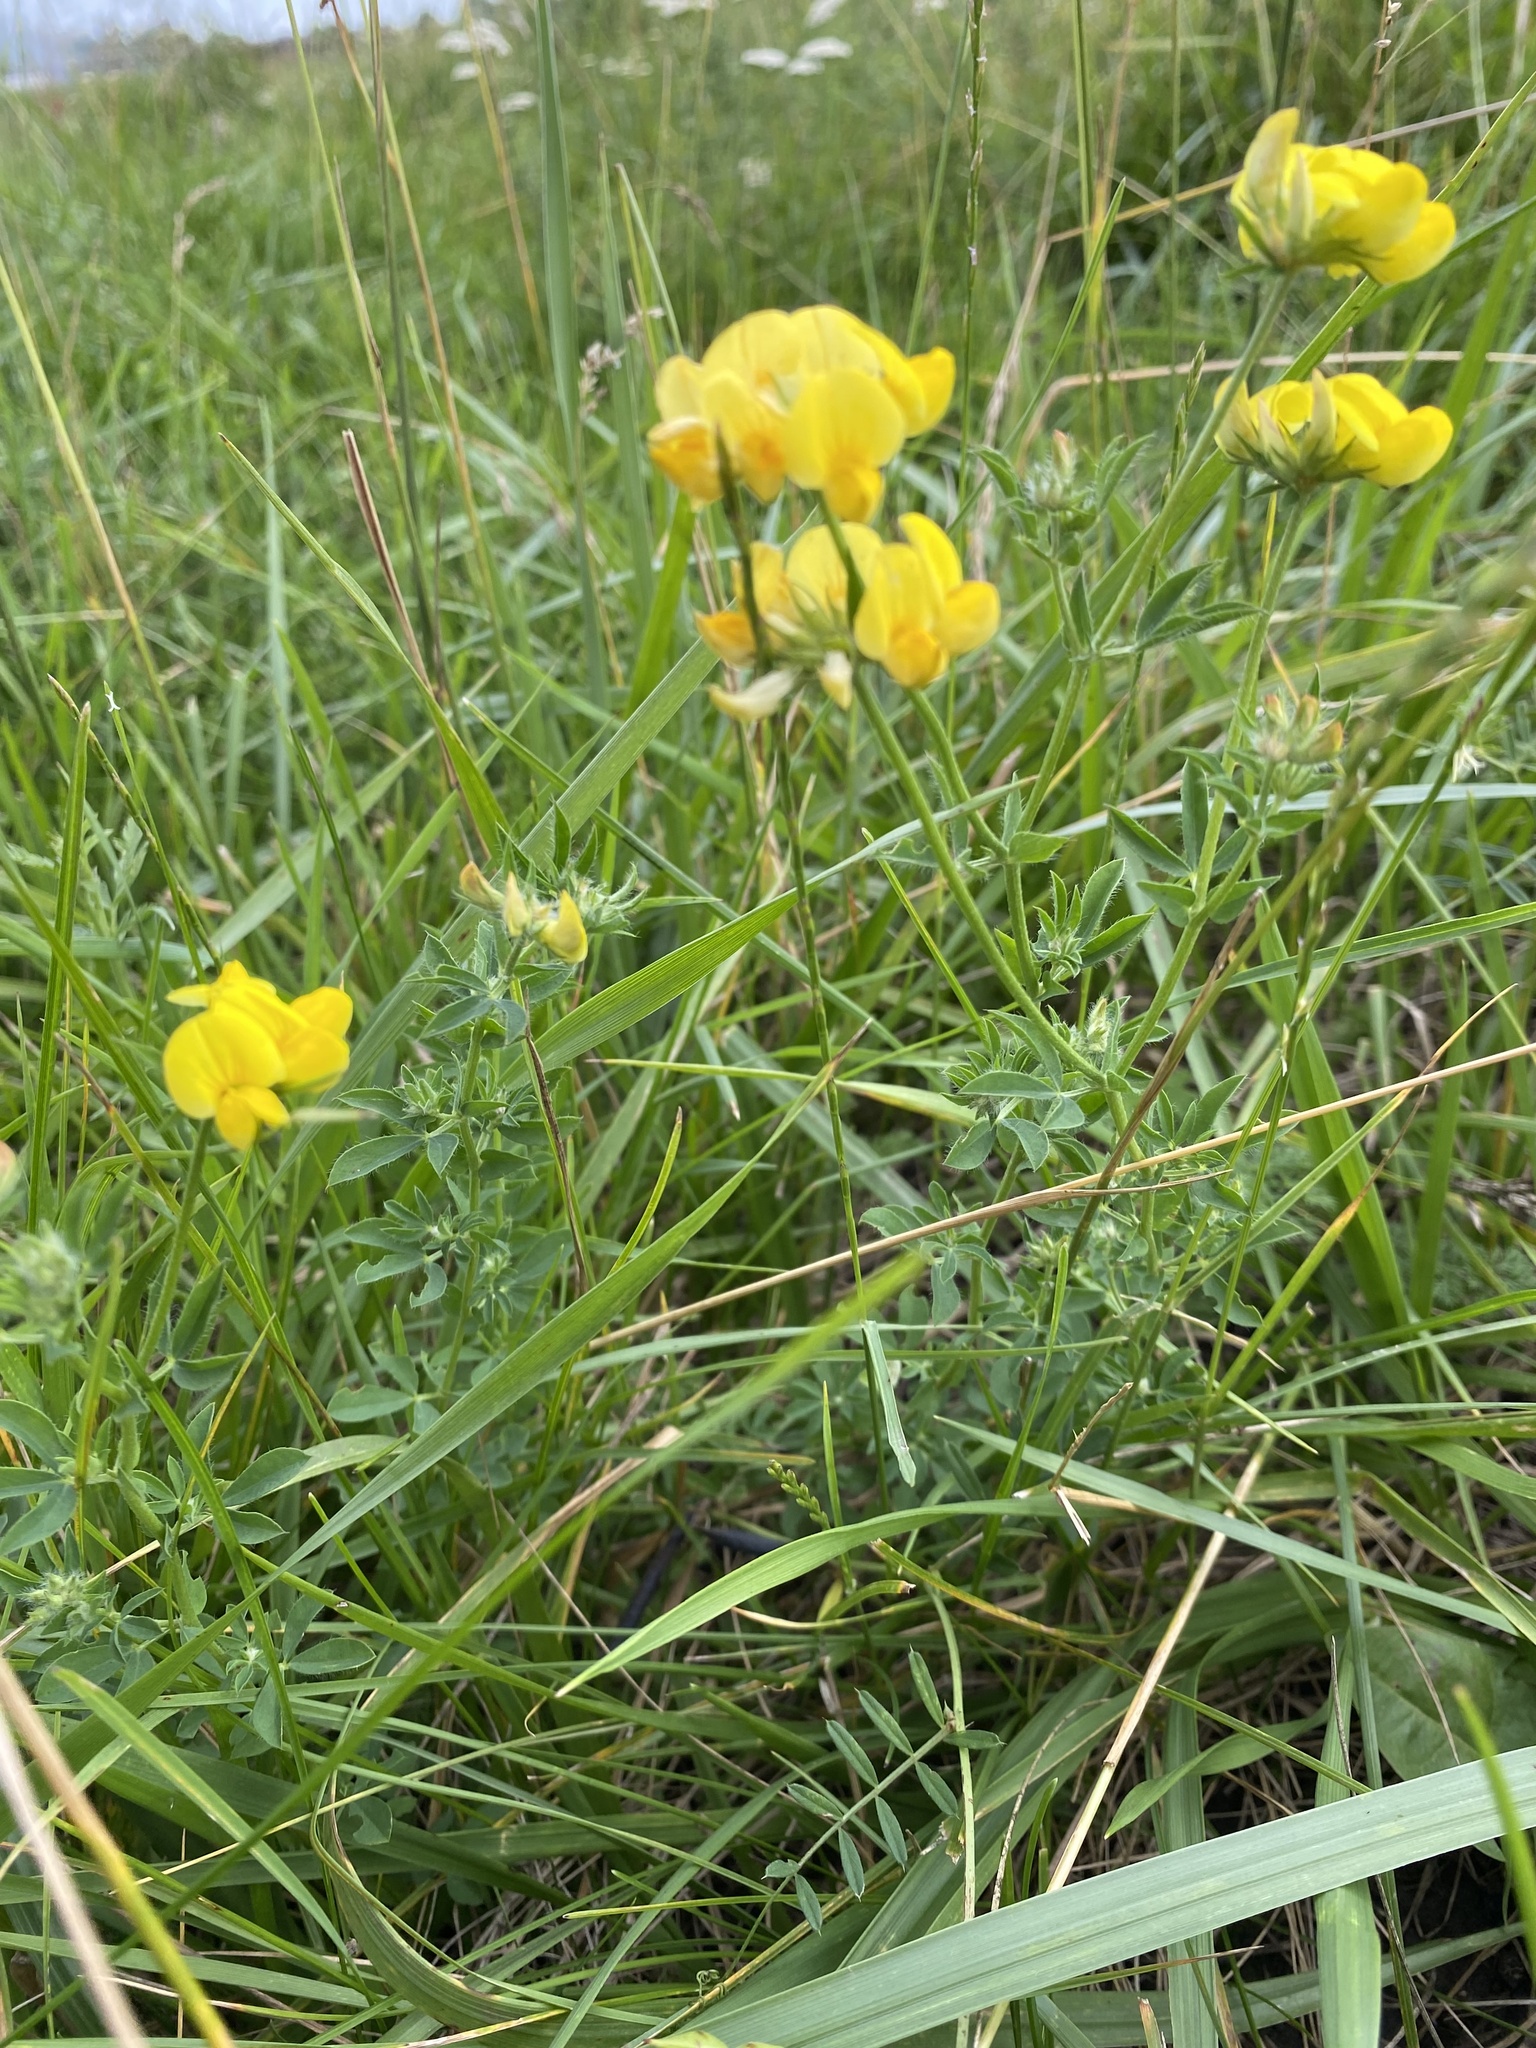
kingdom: Plantae
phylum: Tracheophyta
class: Magnoliopsida
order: Fabales
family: Fabaceae
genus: Lotus
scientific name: Lotus corniculatus
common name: Common bird's-foot-trefoil
